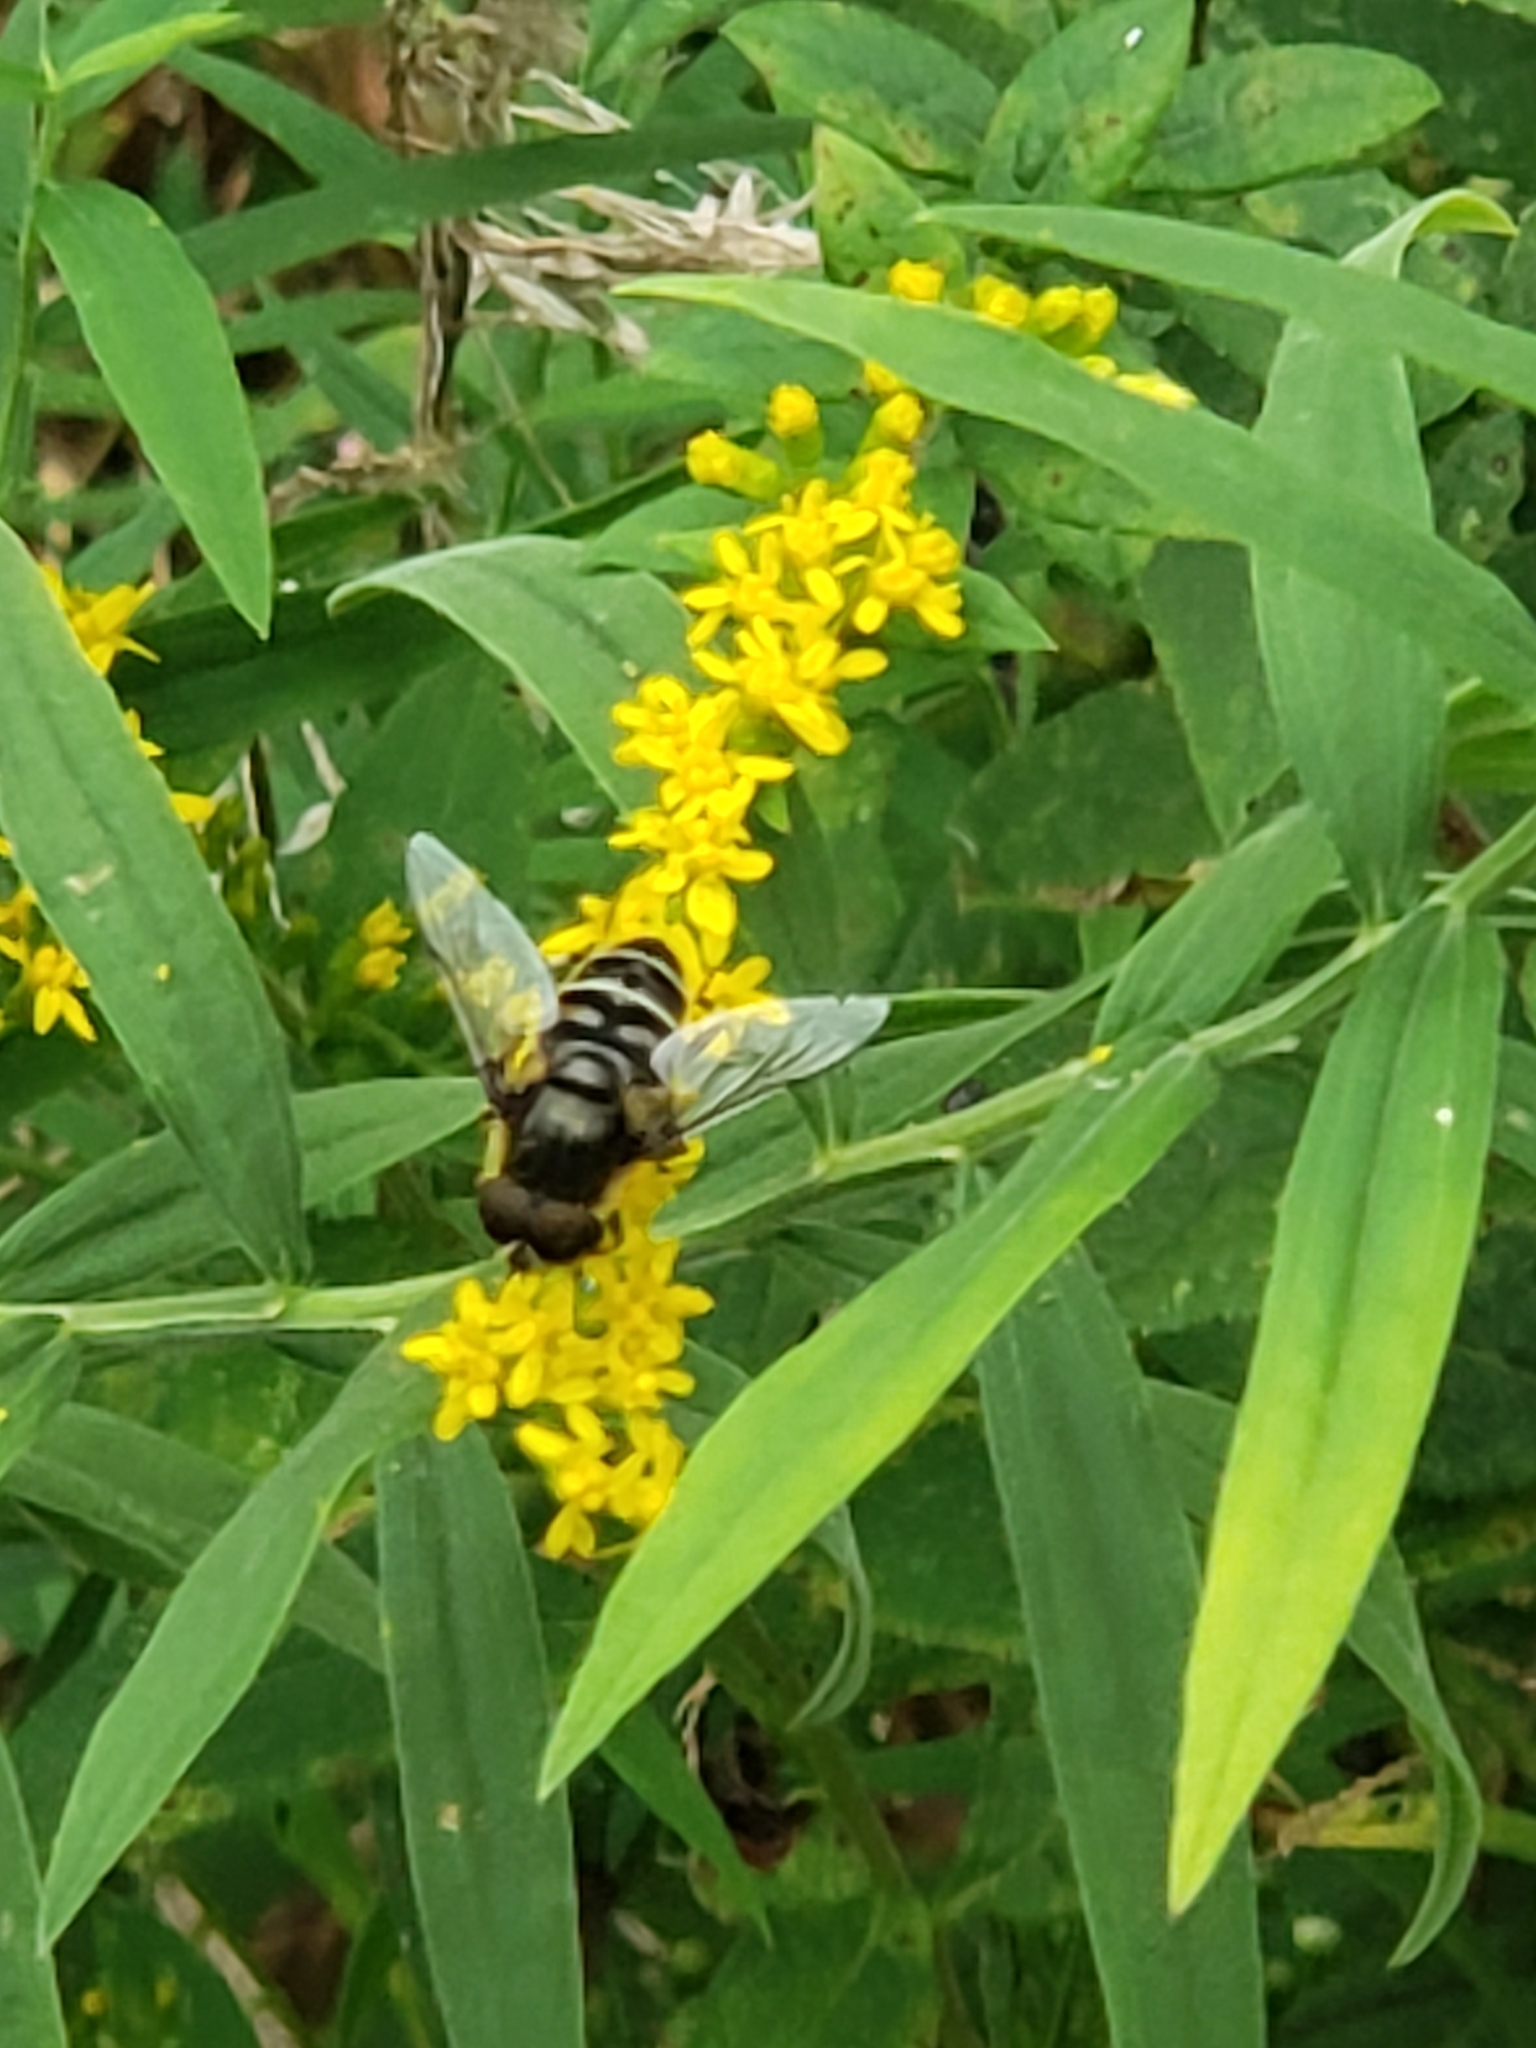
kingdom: Animalia
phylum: Arthropoda
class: Insecta
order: Diptera
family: Syrphidae
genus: Eristalis
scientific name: Eristalis dimidiata
